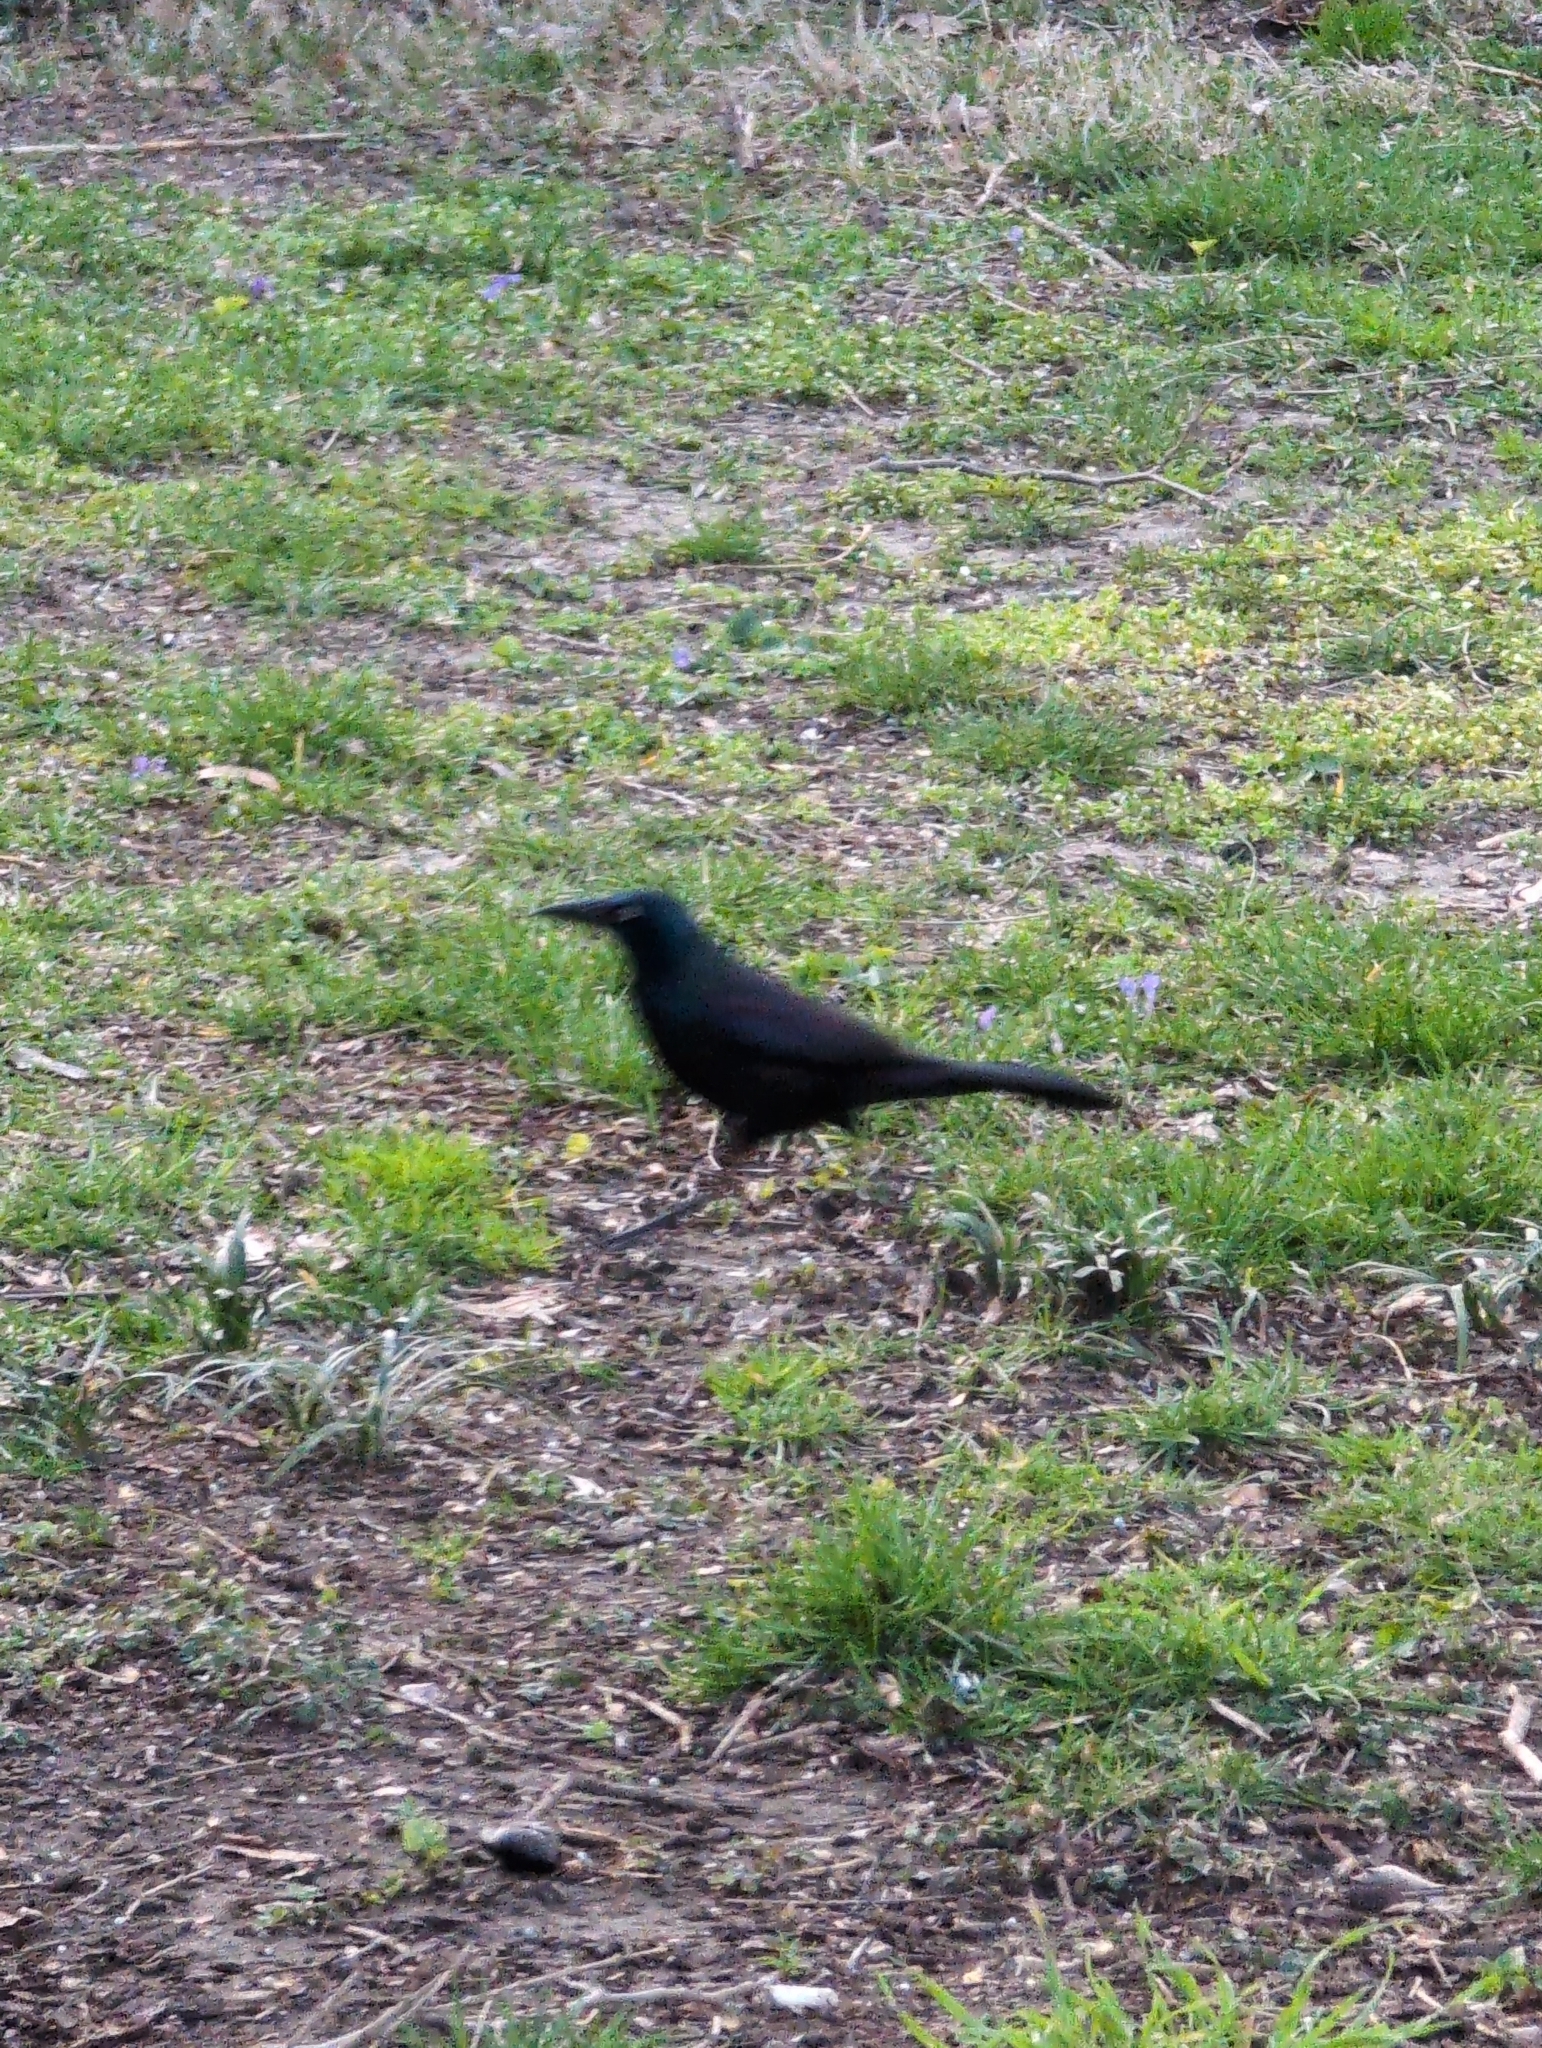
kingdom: Animalia
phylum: Chordata
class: Aves
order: Passeriformes
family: Icteridae
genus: Quiscalus
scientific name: Quiscalus quiscula
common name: Common grackle
